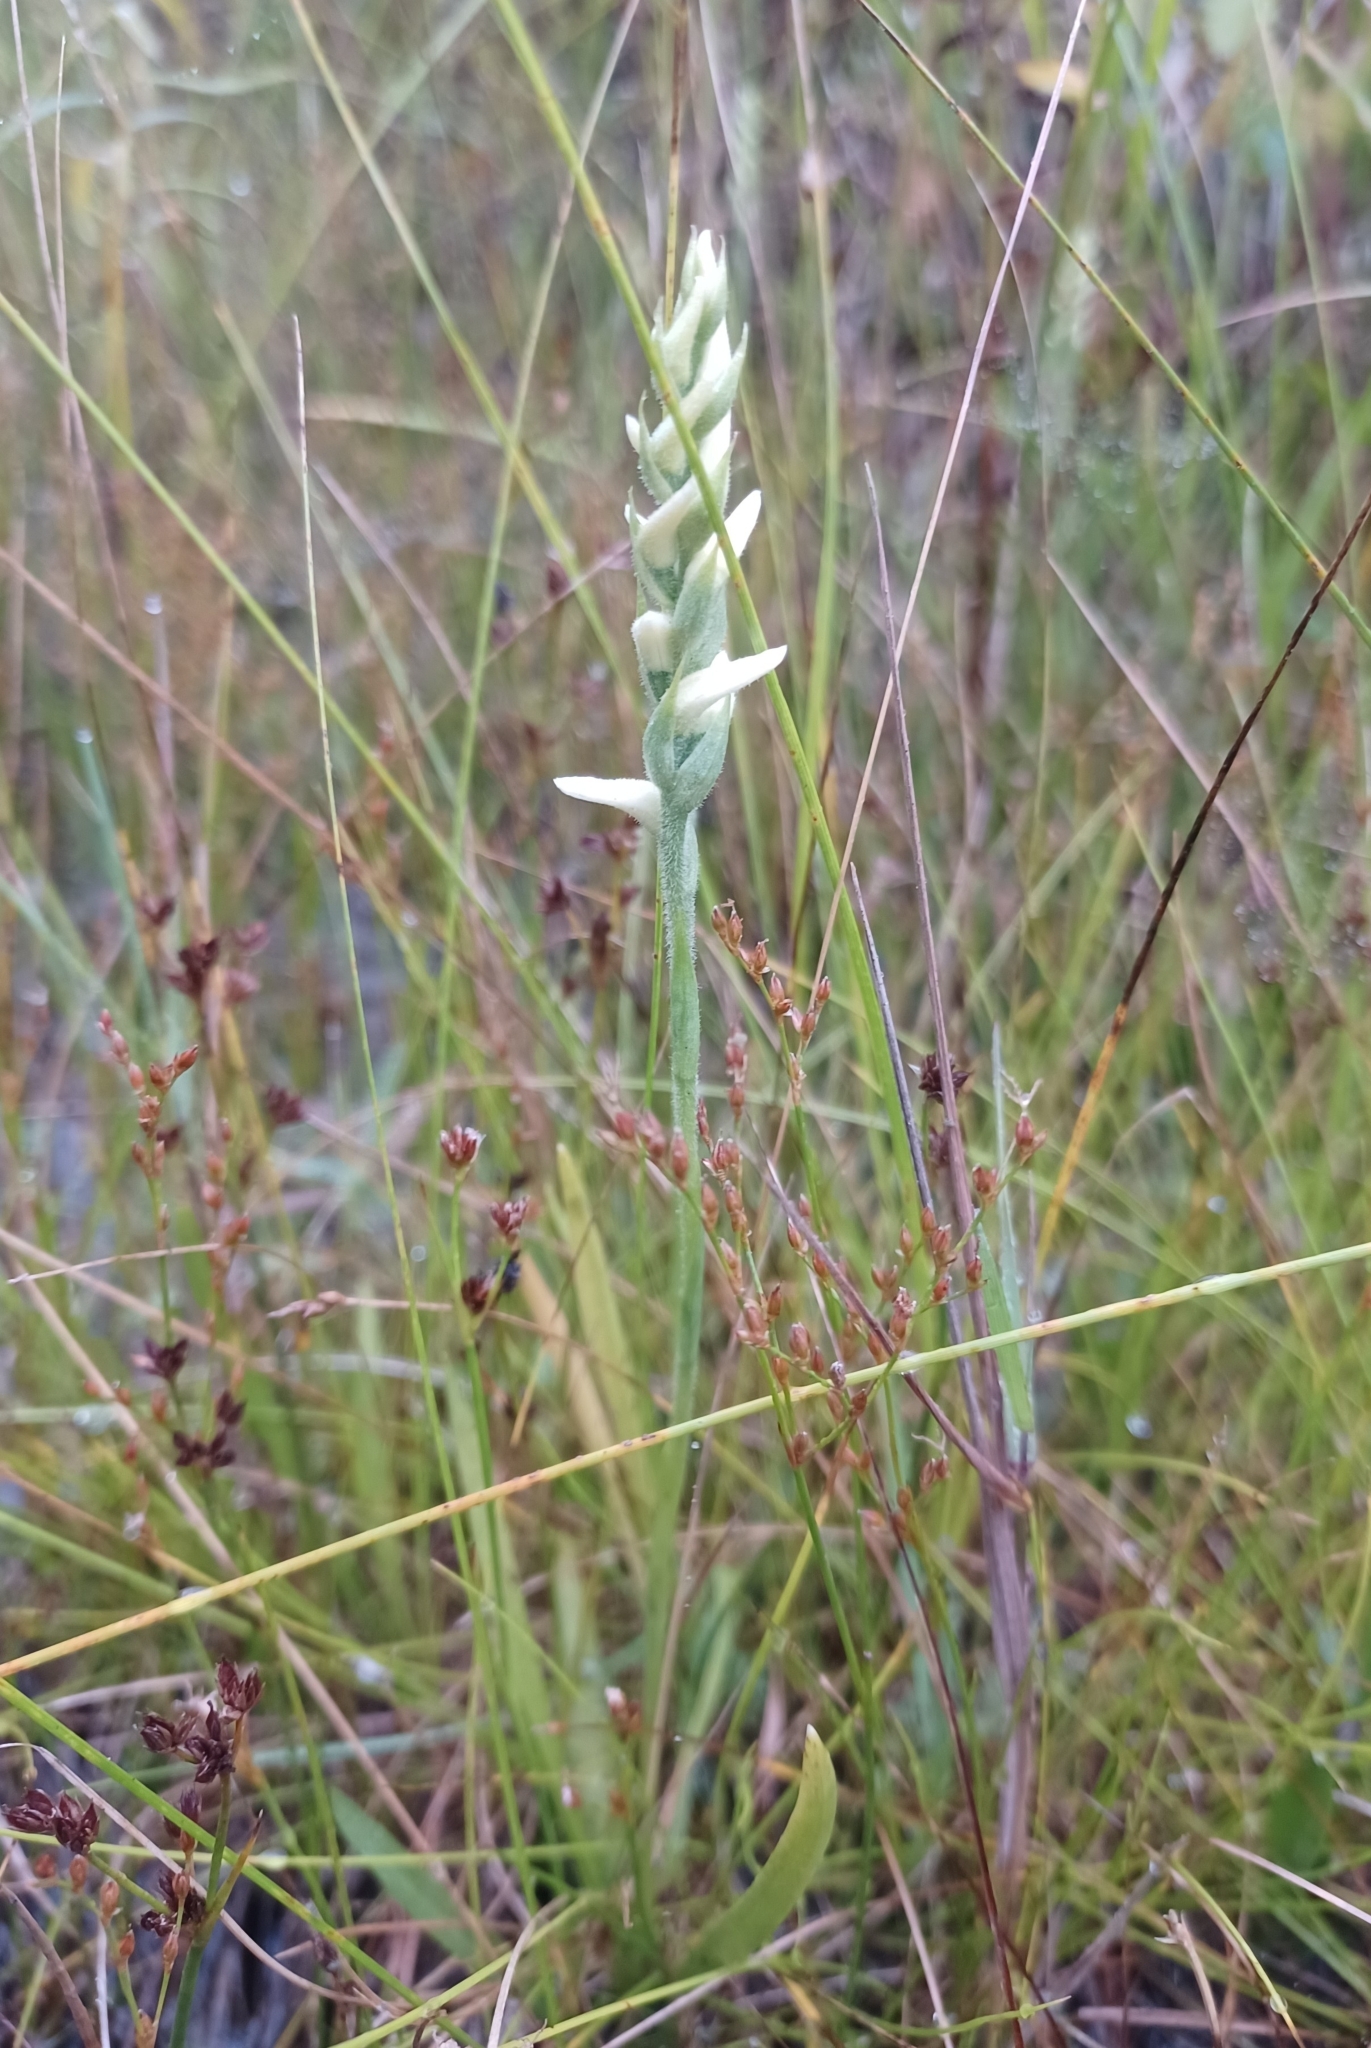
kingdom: Plantae
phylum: Tracheophyta
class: Liliopsida
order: Asparagales
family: Orchidaceae
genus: Spiranthes
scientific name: Spiranthes incurva
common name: Sphinx ladies'-tresses
